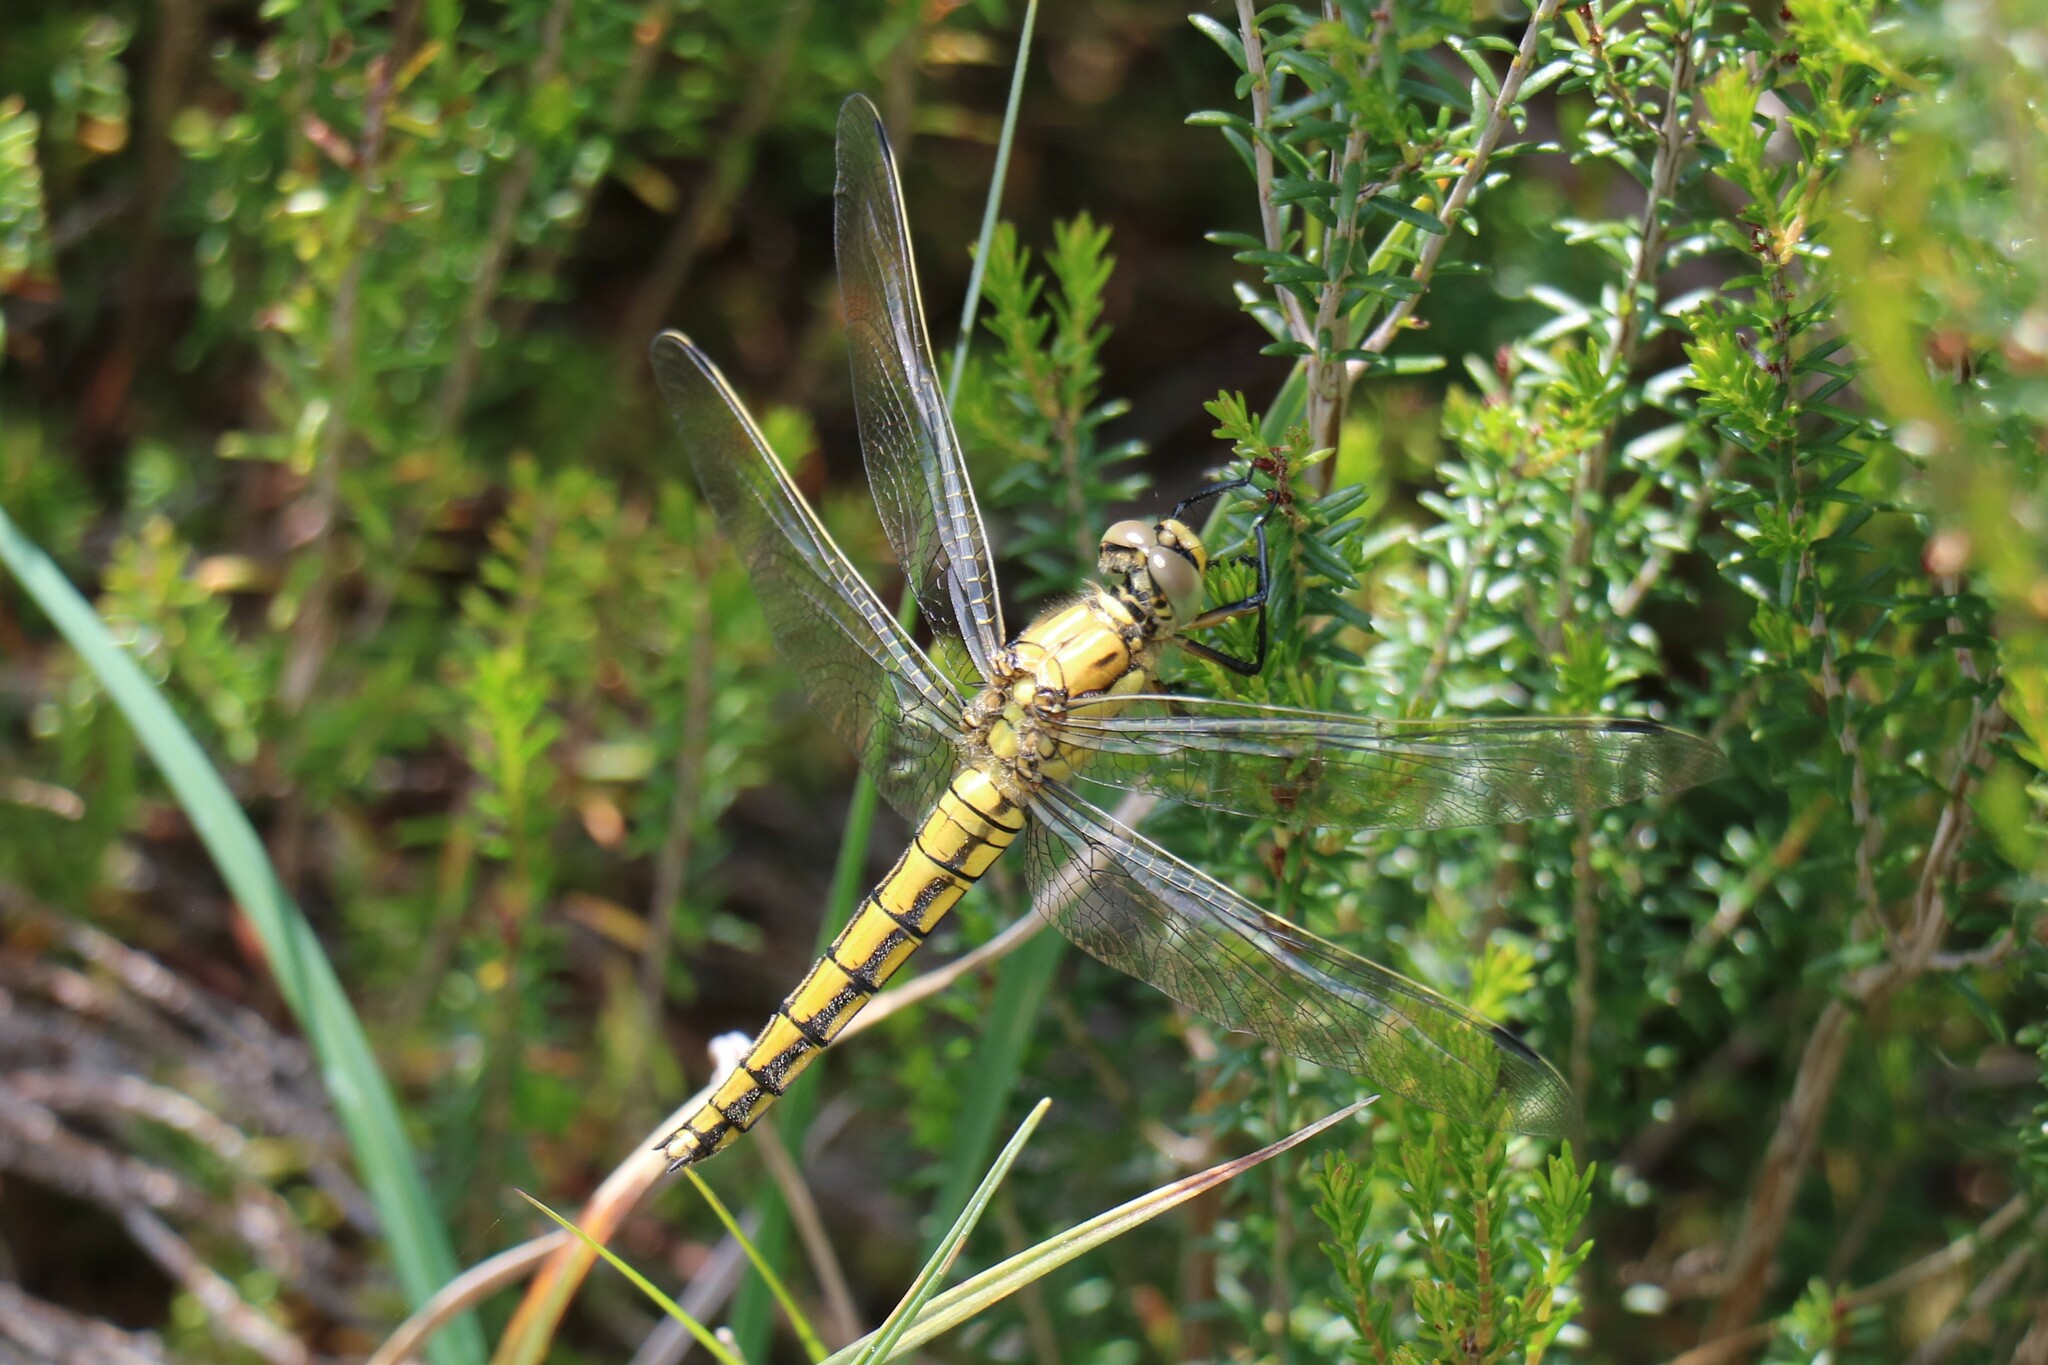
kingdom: Animalia
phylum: Arthropoda
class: Insecta
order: Odonata
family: Libellulidae
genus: Orthetrum
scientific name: Orthetrum cancellatum
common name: Black-tailed skimmer
